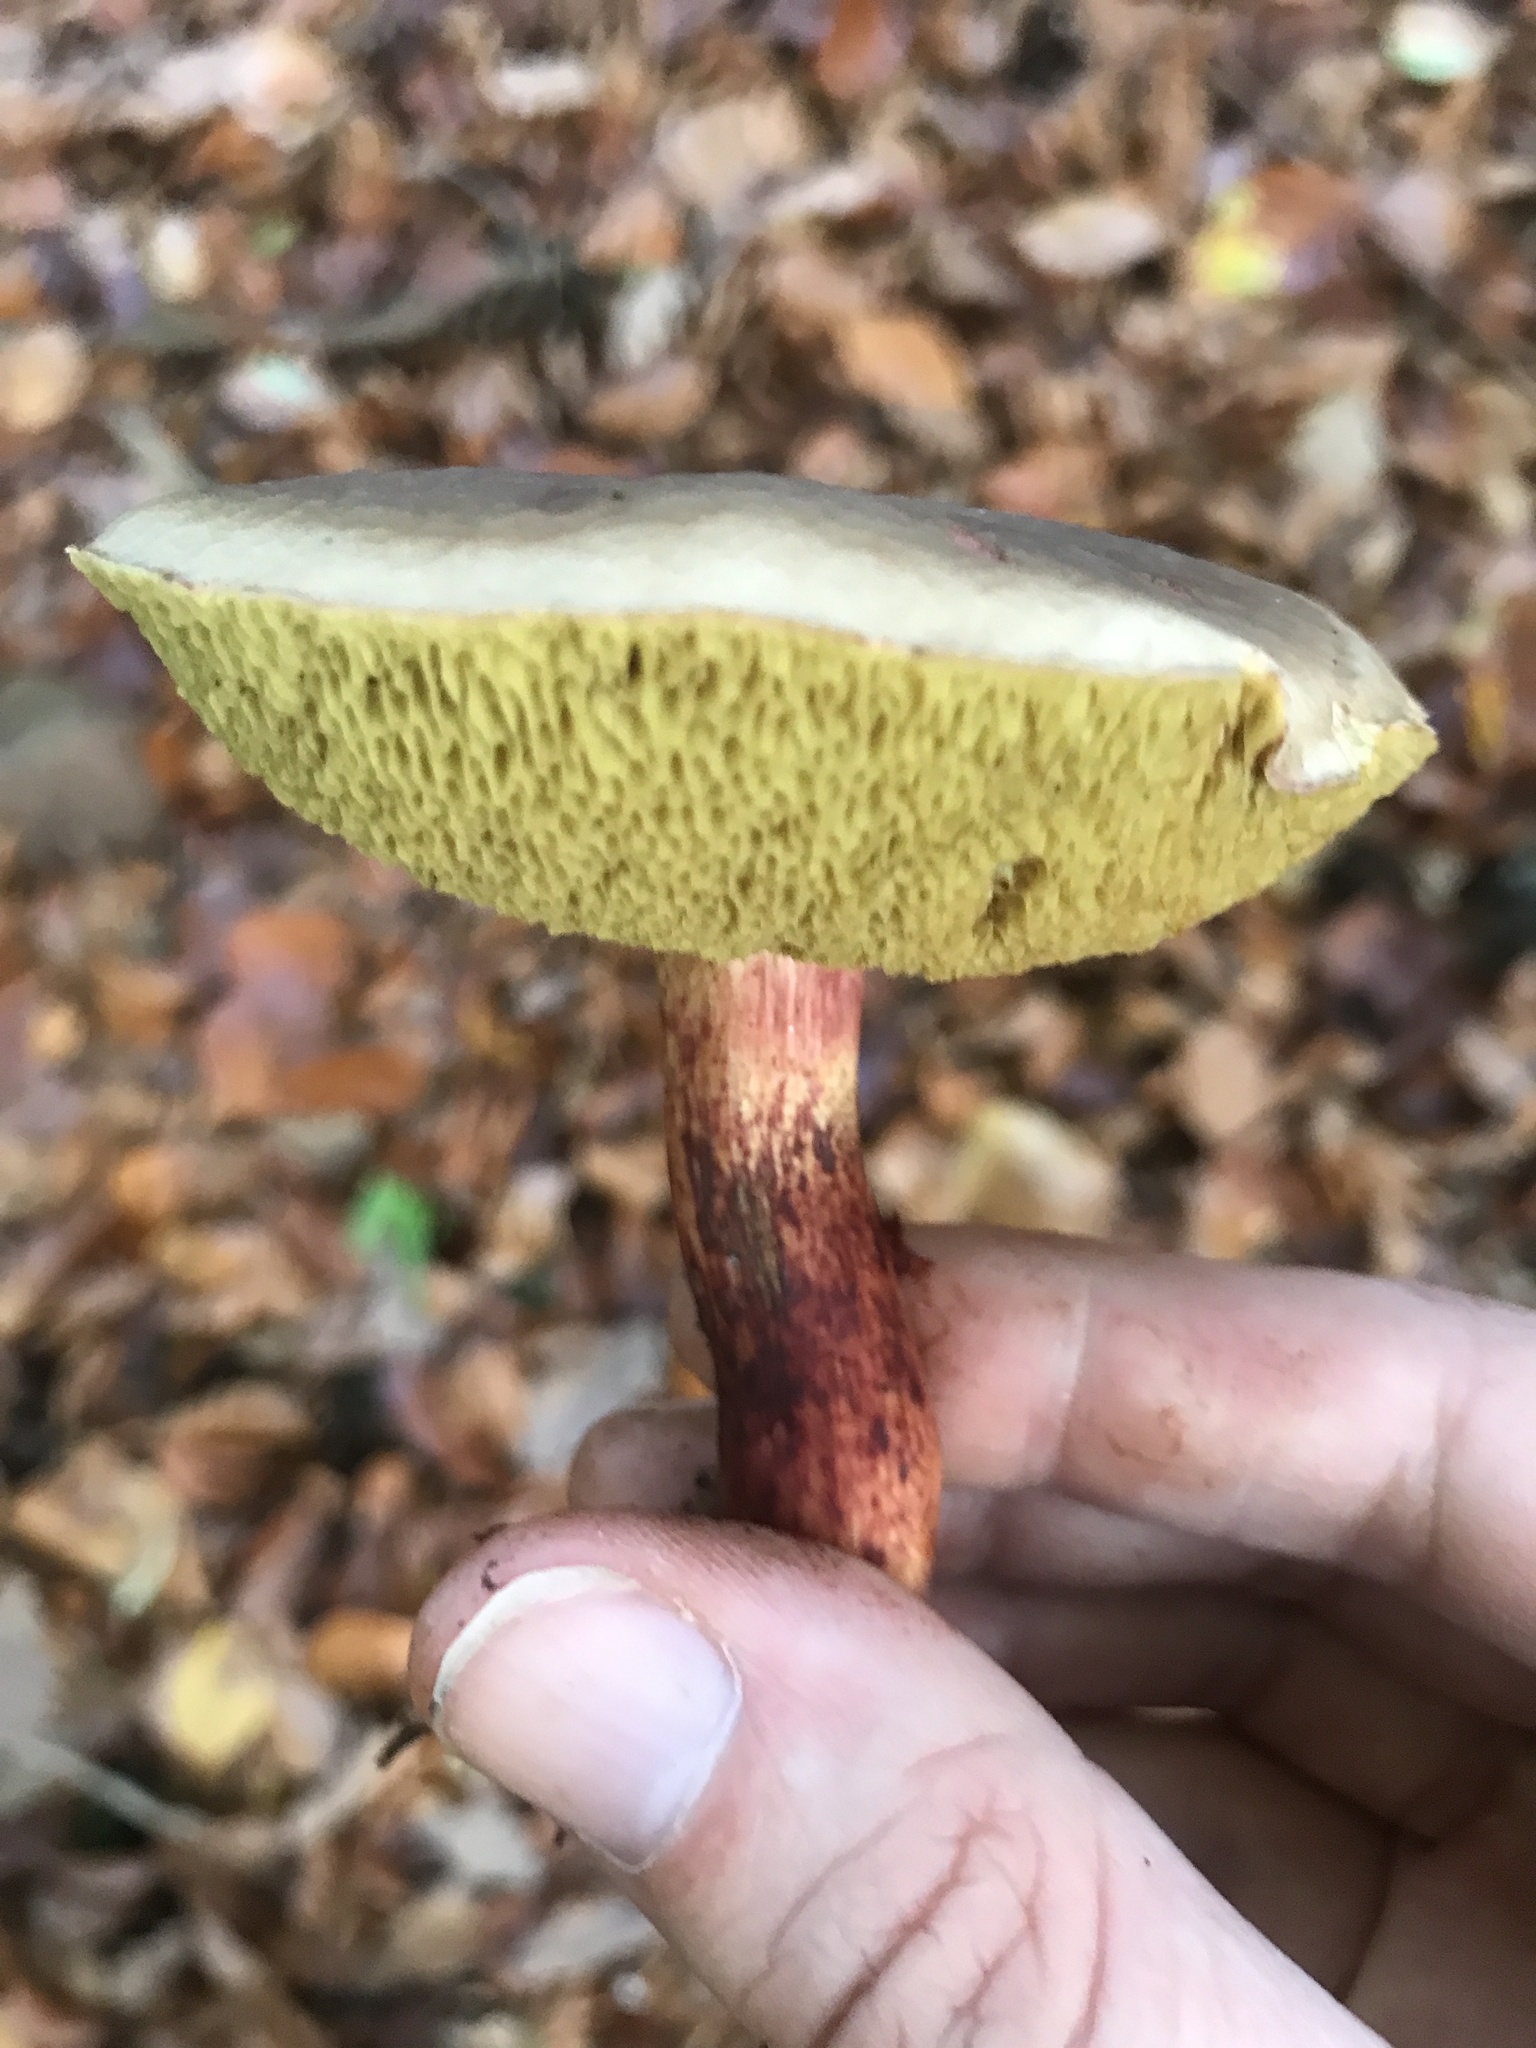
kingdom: Fungi
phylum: Basidiomycota
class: Agaricomycetes
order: Boletales
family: Boletaceae
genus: Xerocomellus
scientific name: Xerocomellus chrysenteron
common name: Red-cracking bolete
